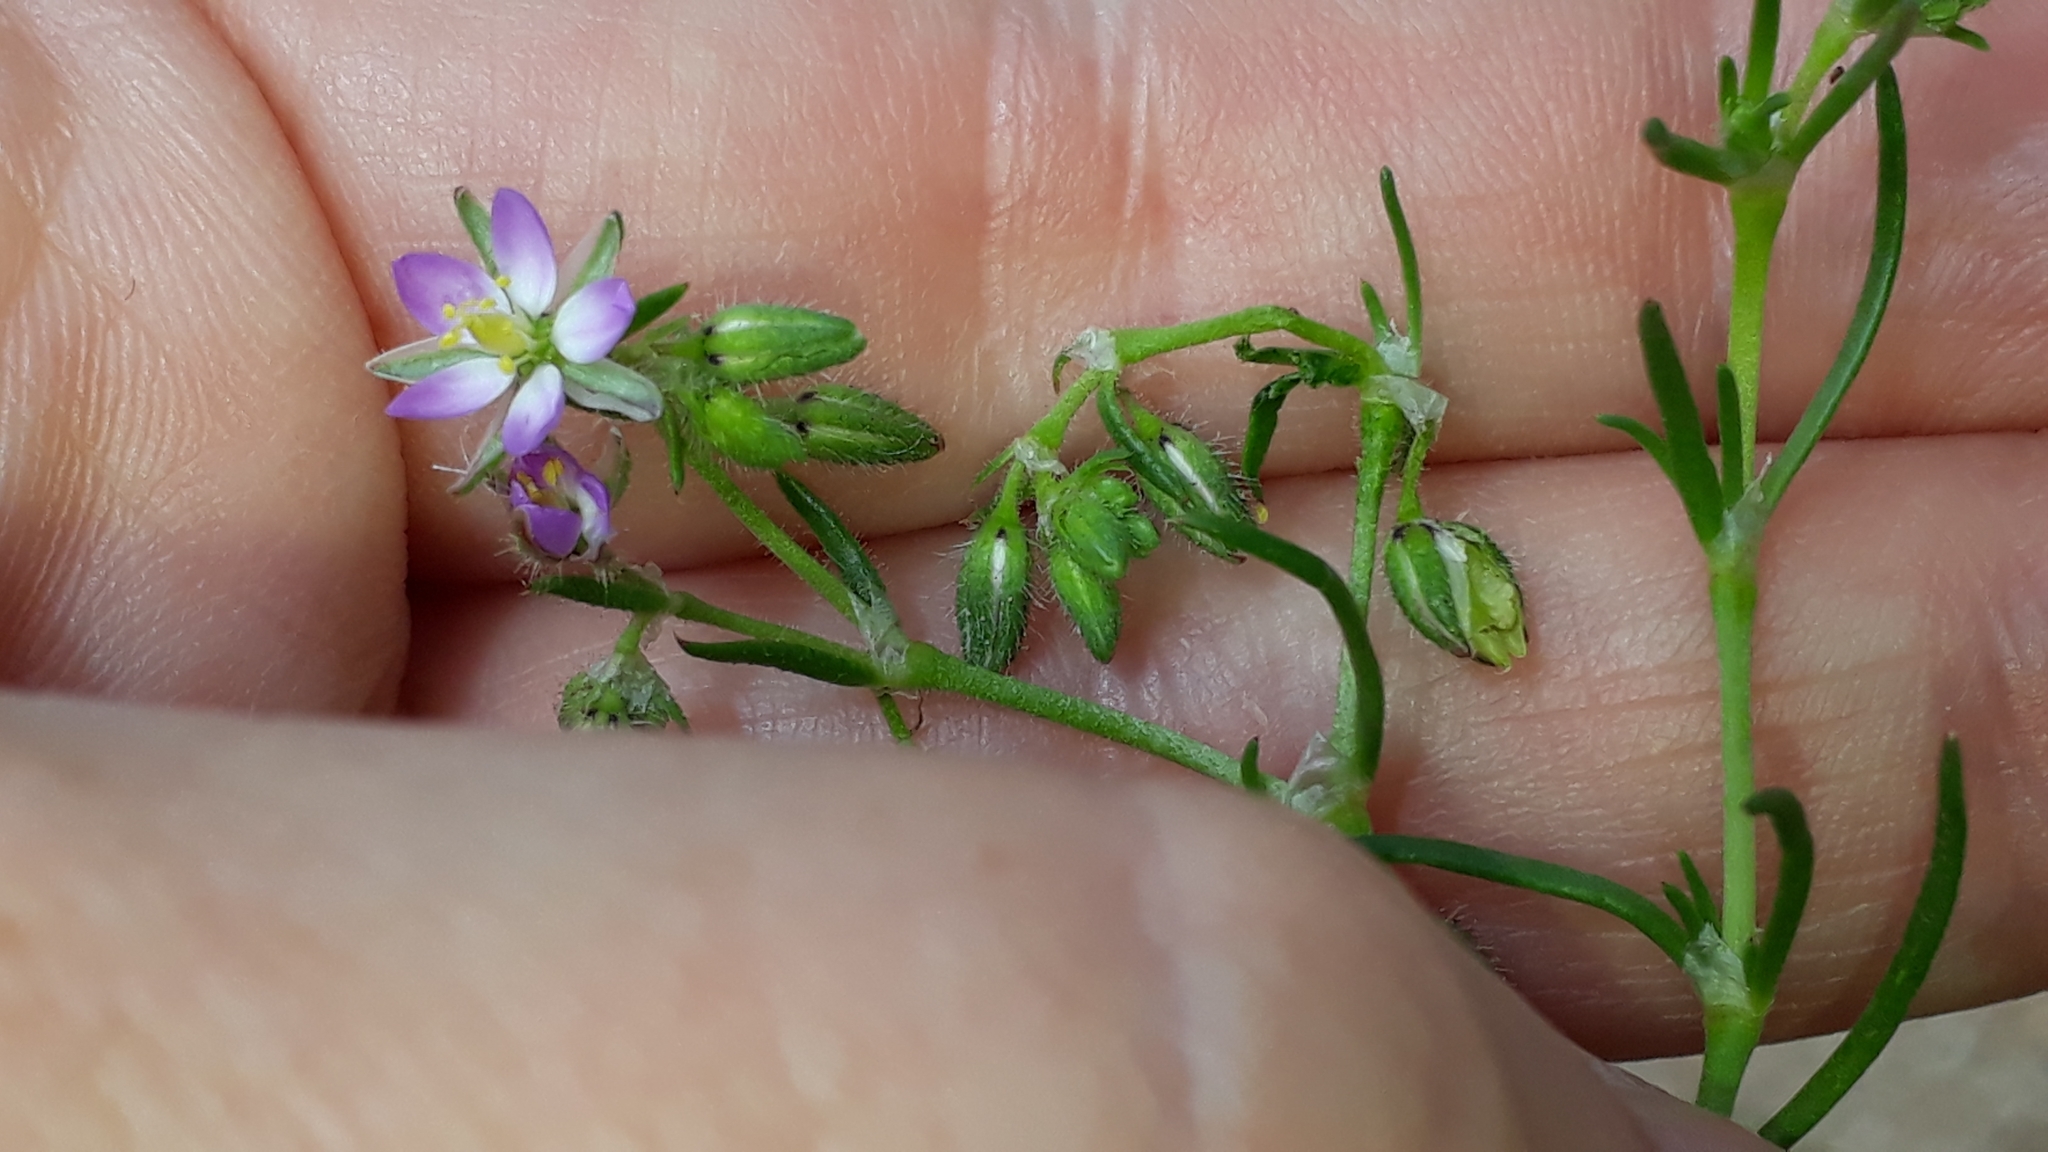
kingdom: Plantae
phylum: Tracheophyta
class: Magnoliopsida
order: Caryophyllales
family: Caryophyllaceae
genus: Spergularia
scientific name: Spergularia rubra
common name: Red sand-spurrey
